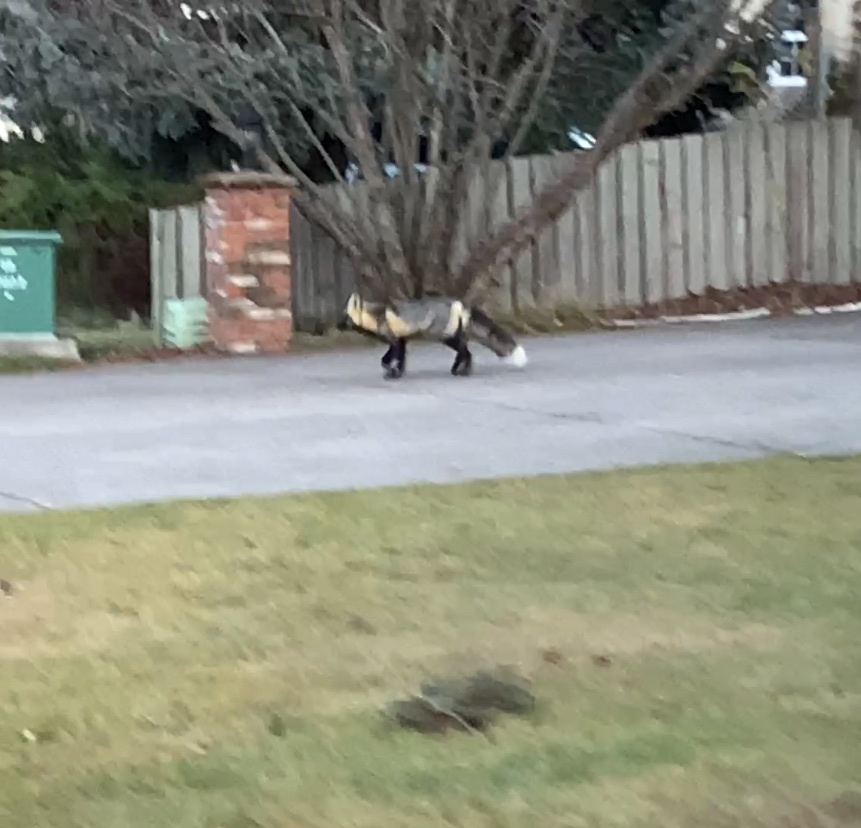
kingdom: Animalia
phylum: Chordata
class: Mammalia
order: Carnivora
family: Canidae
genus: Vulpes
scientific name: Vulpes vulpes
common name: Red fox
